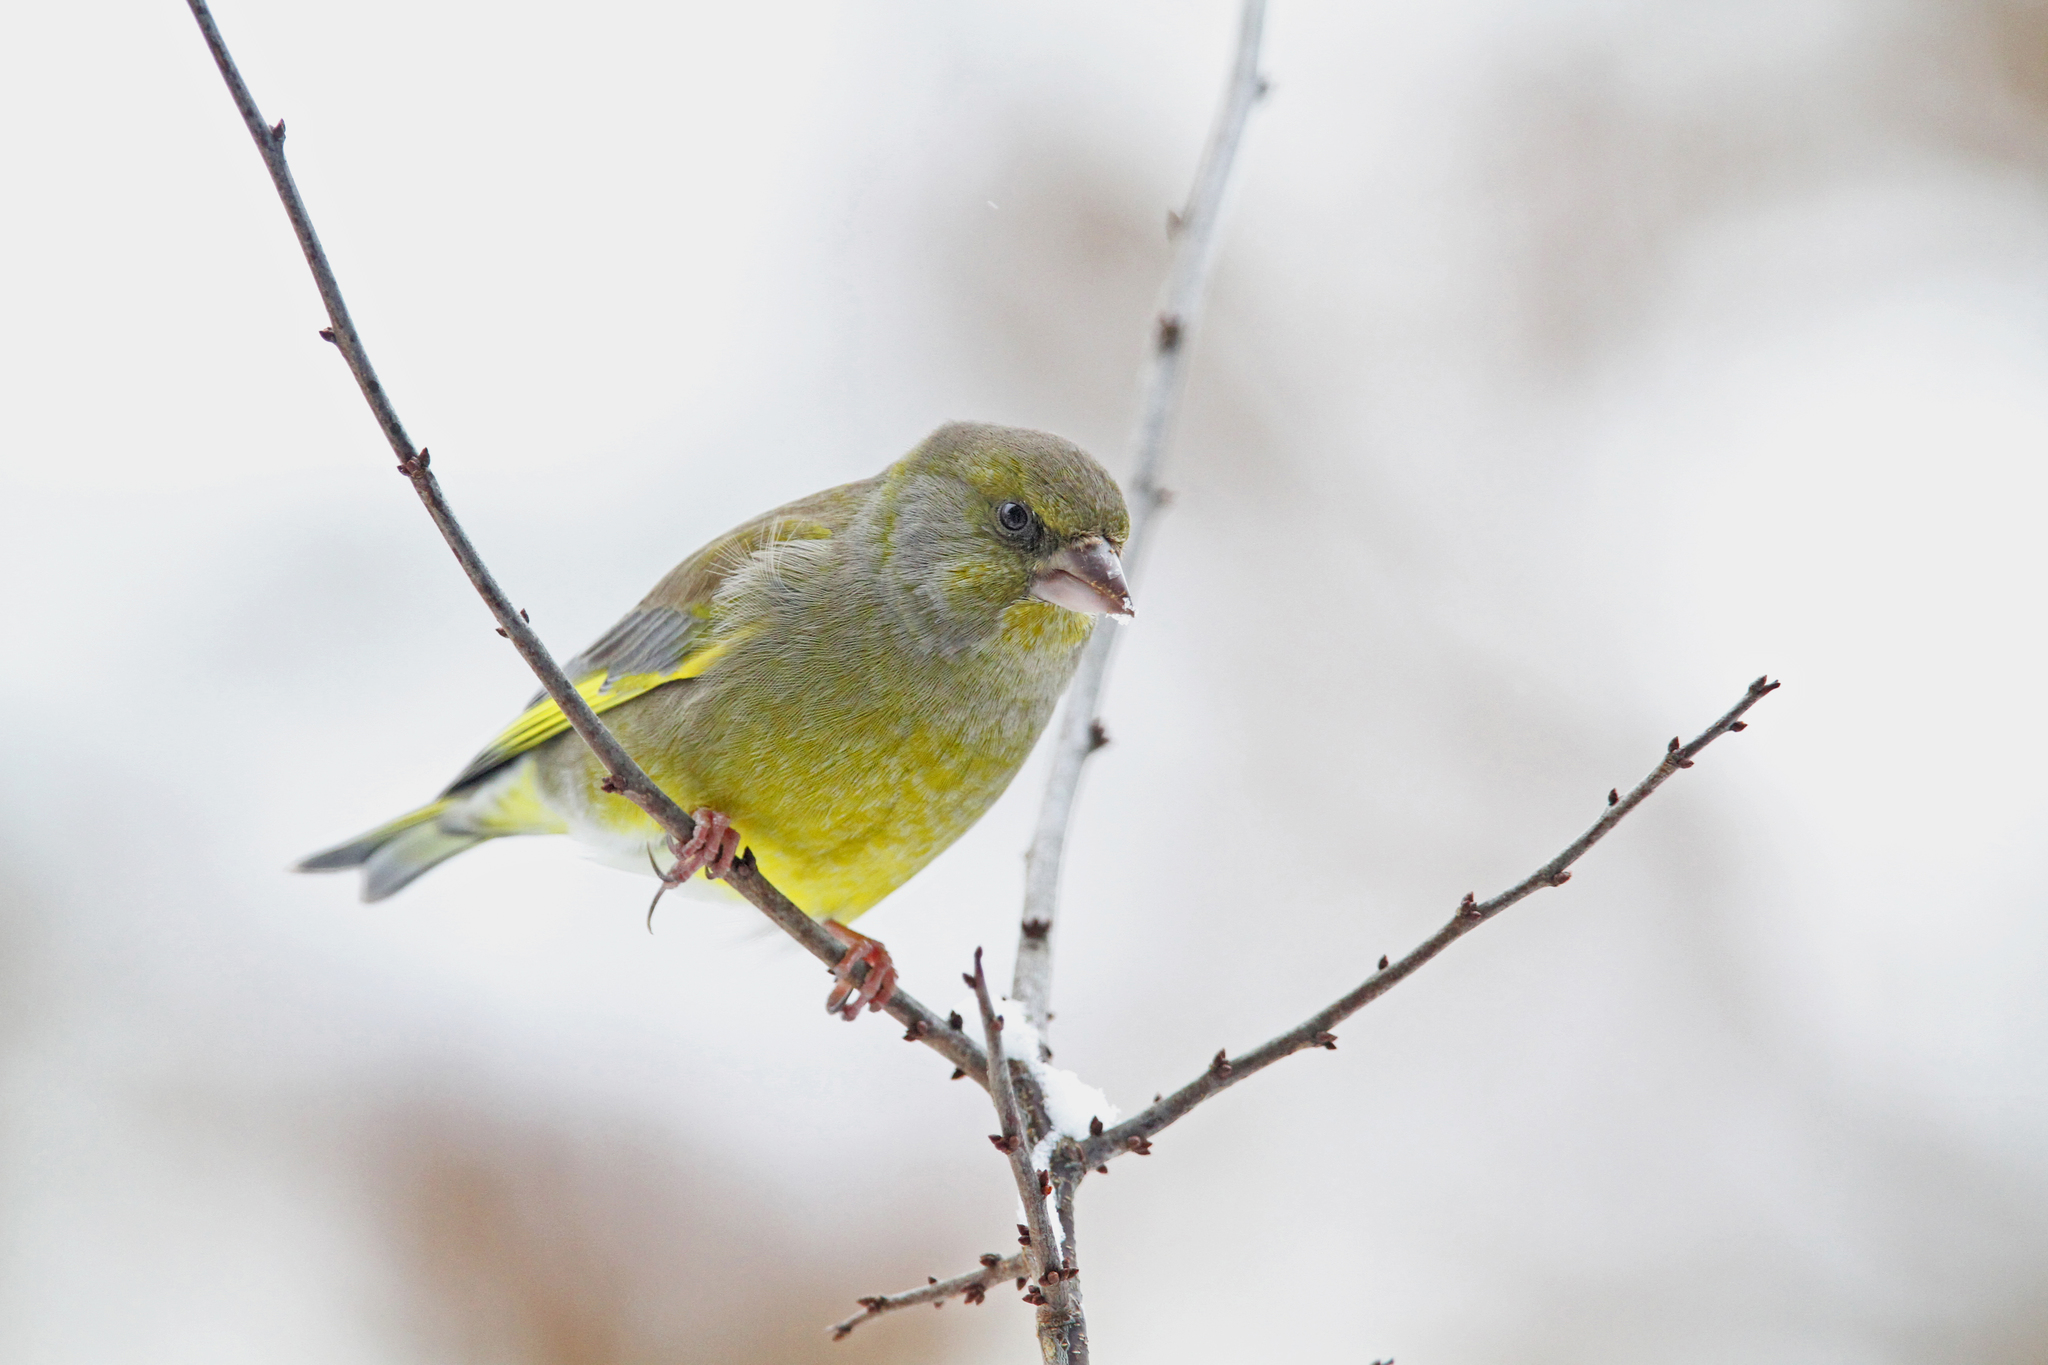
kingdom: Plantae
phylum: Tracheophyta
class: Liliopsida
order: Poales
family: Poaceae
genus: Chloris
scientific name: Chloris chloris
